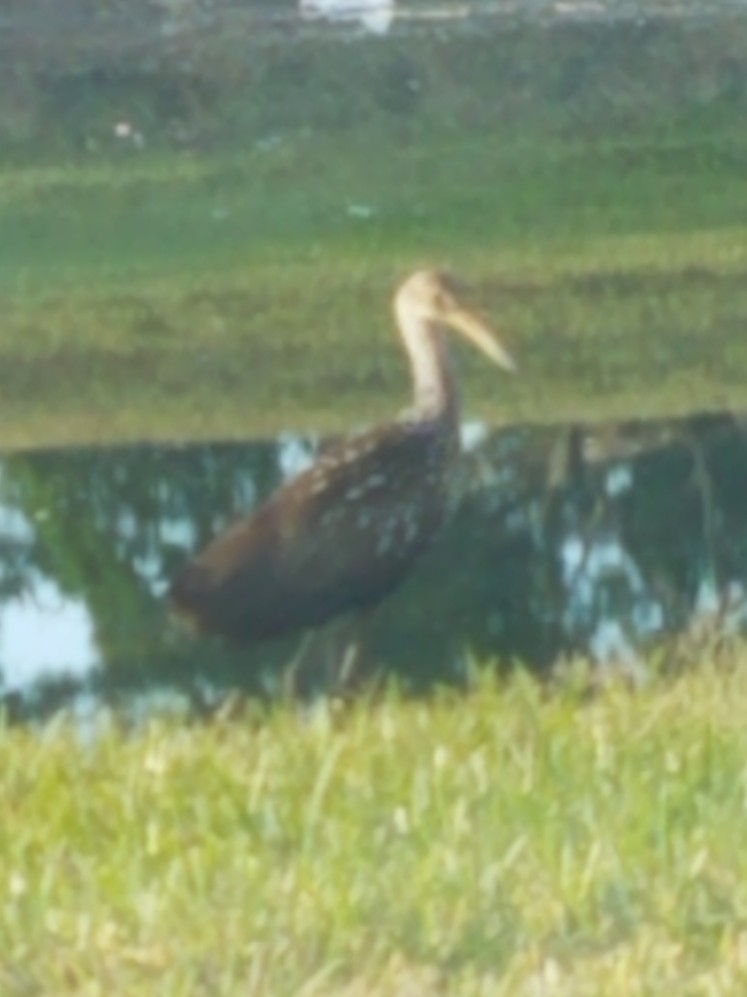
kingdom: Animalia
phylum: Chordata
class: Aves
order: Gruiformes
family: Aramidae
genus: Aramus
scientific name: Aramus guarauna
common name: Limpkin
